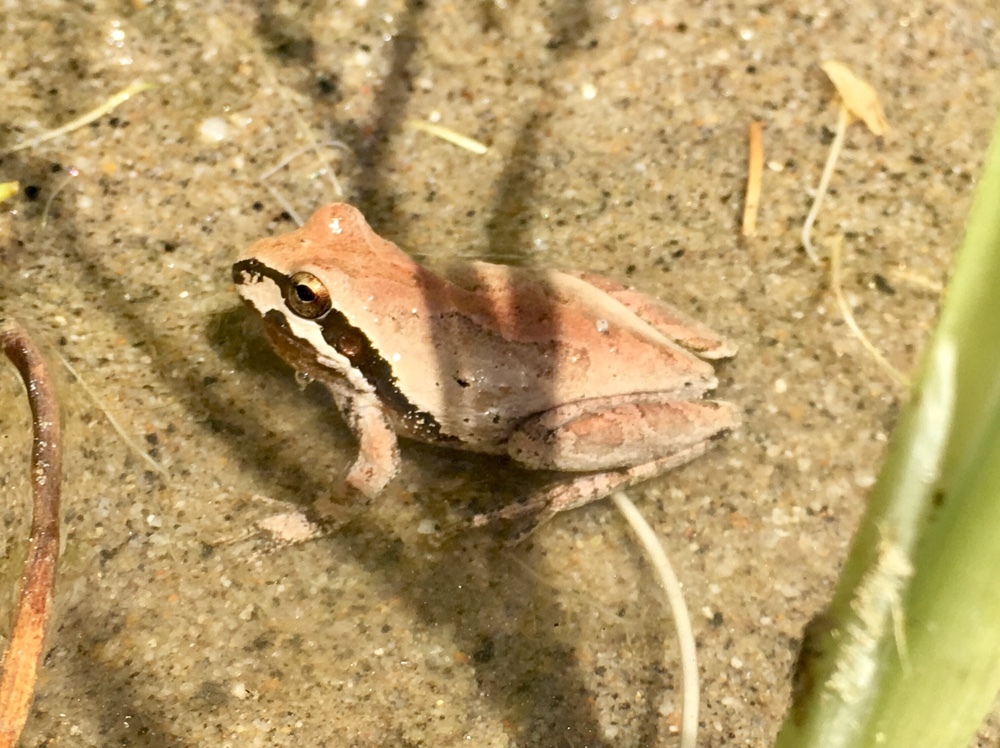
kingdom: Animalia
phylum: Chordata
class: Amphibia
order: Anura
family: Hylidae
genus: Pseudacris
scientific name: Pseudacris regilla
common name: Pacific chorus frog
